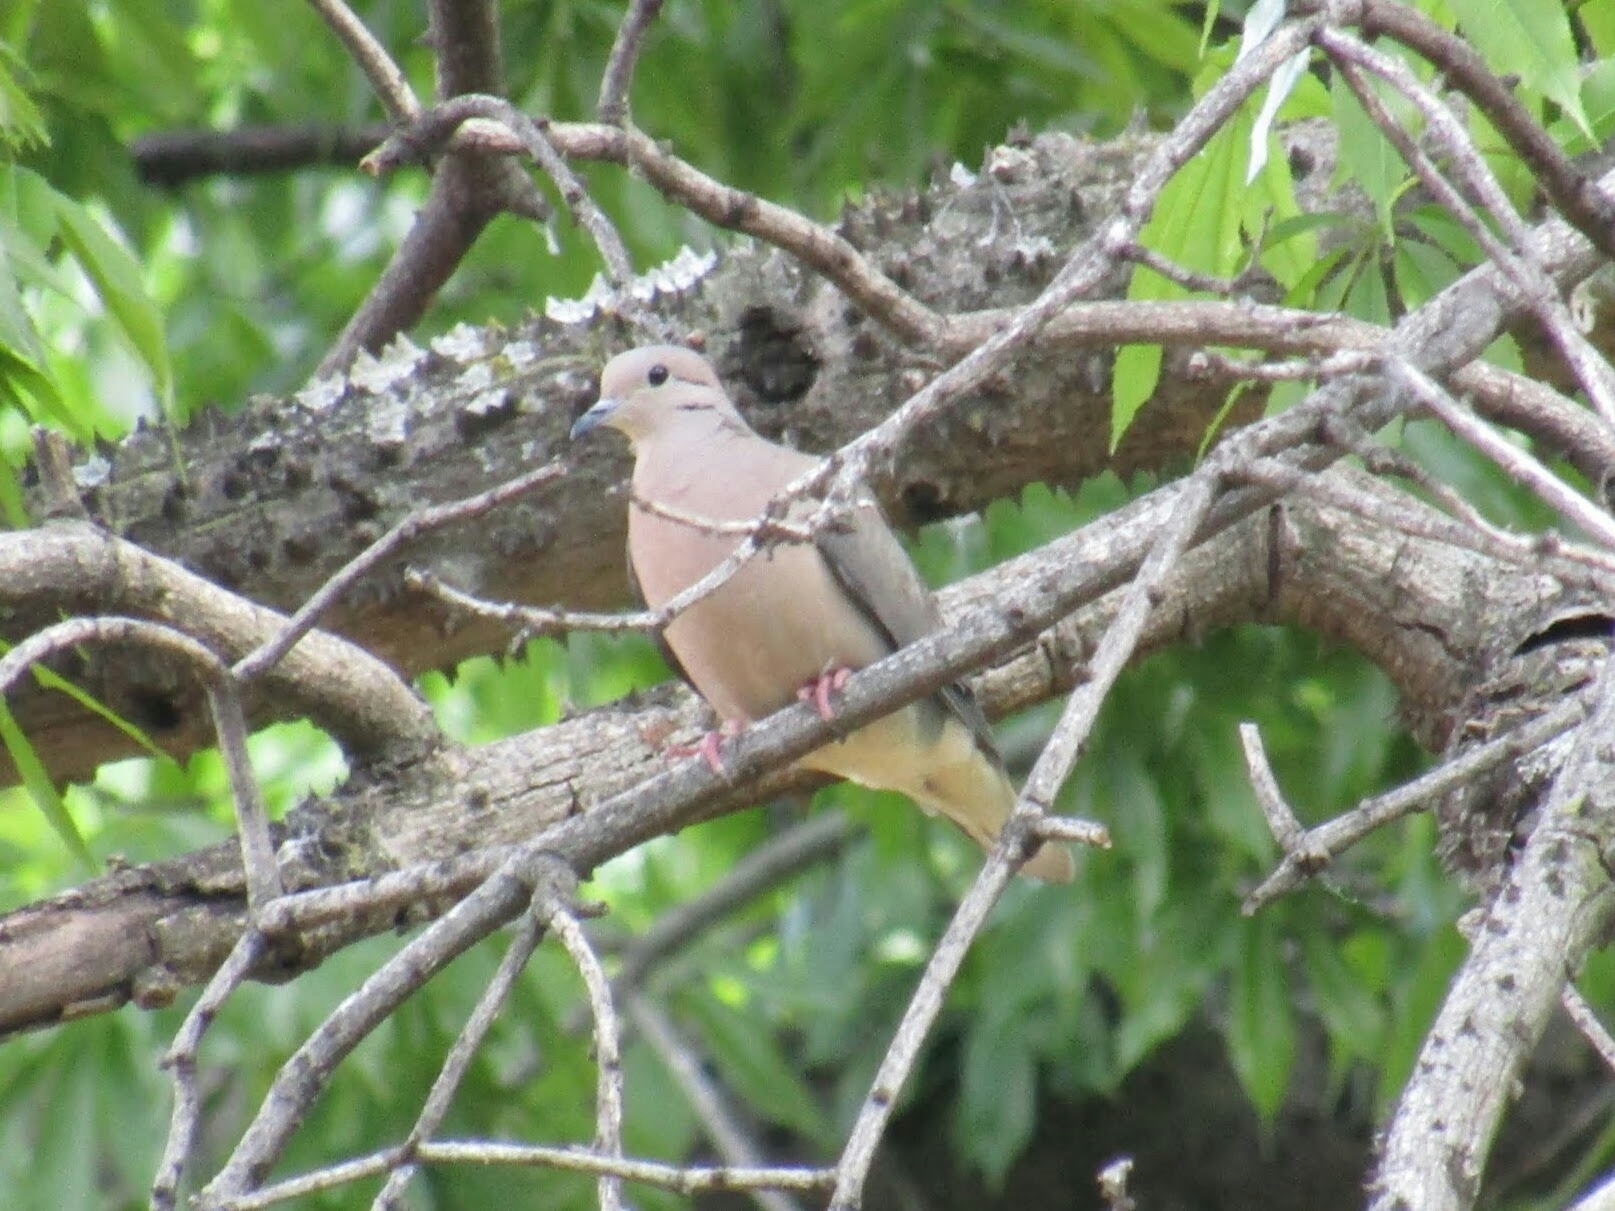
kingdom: Animalia
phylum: Chordata
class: Aves
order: Columbiformes
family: Columbidae
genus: Zenaida
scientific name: Zenaida auriculata
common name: Eared dove
